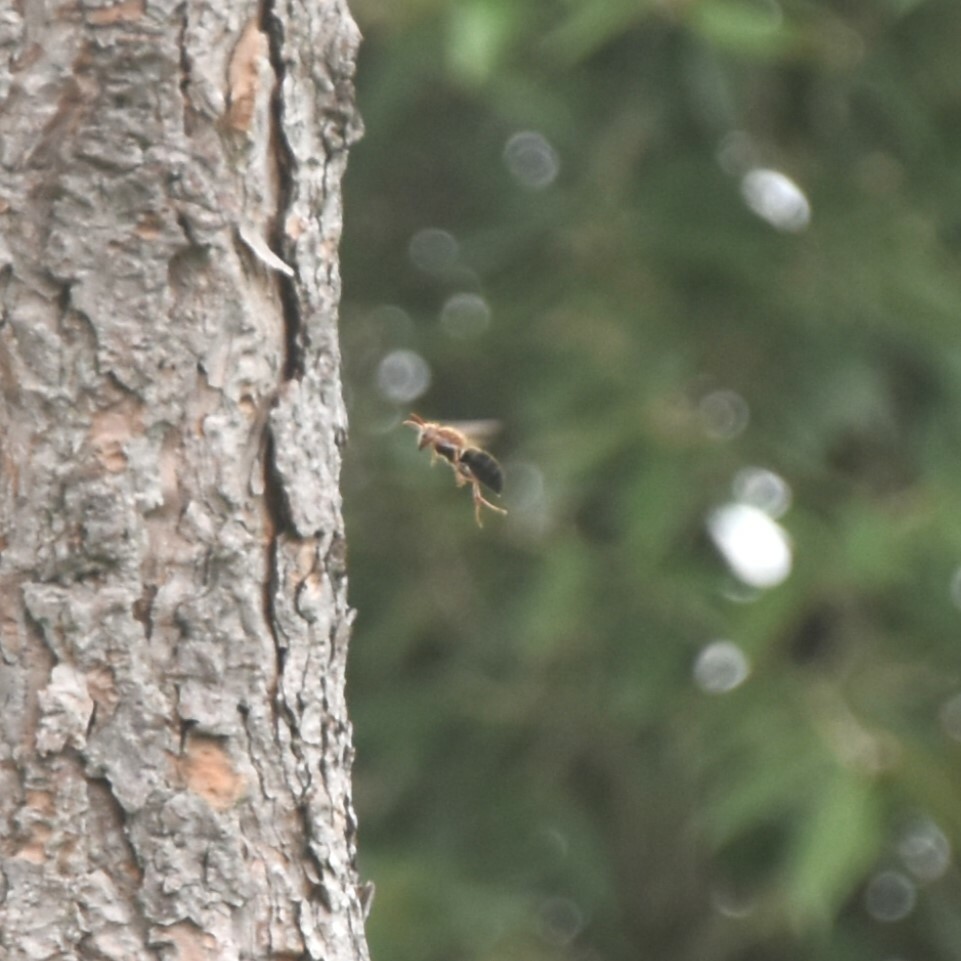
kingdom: Animalia
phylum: Arthropoda
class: Insecta
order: Hymenoptera
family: Vespidae
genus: Vespa
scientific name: Vespa basalis
